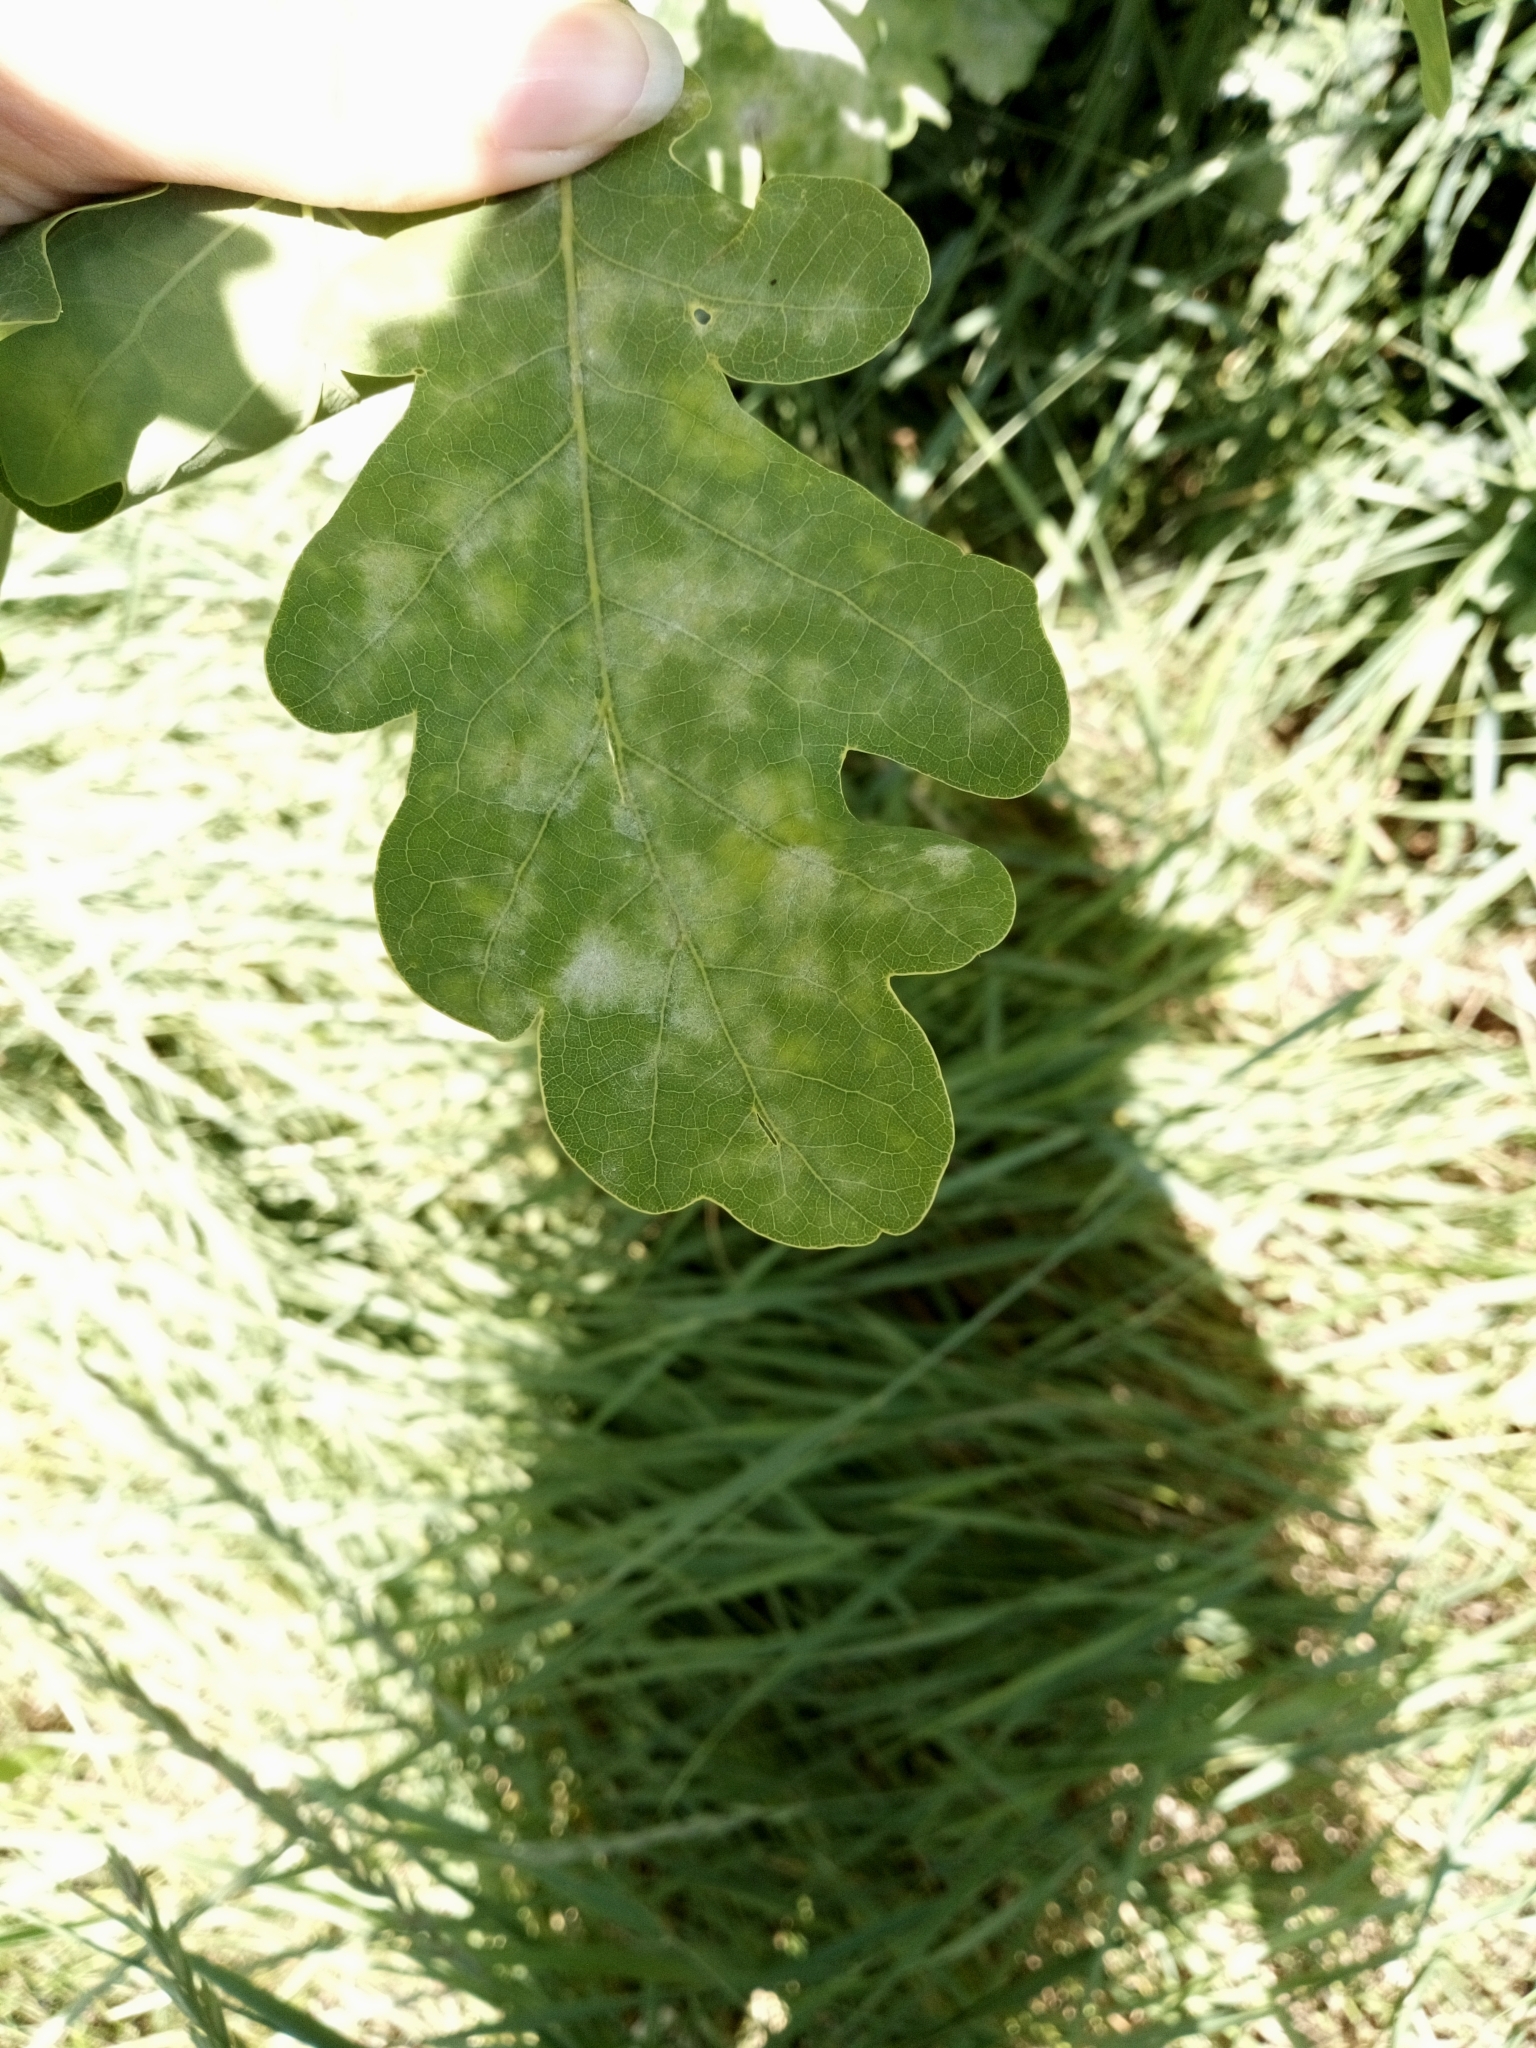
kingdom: Fungi
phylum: Ascomycota
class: Leotiomycetes
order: Helotiales
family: Erysiphaceae
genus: Erysiphe
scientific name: Erysiphe alphitoides
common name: Oak mildew
